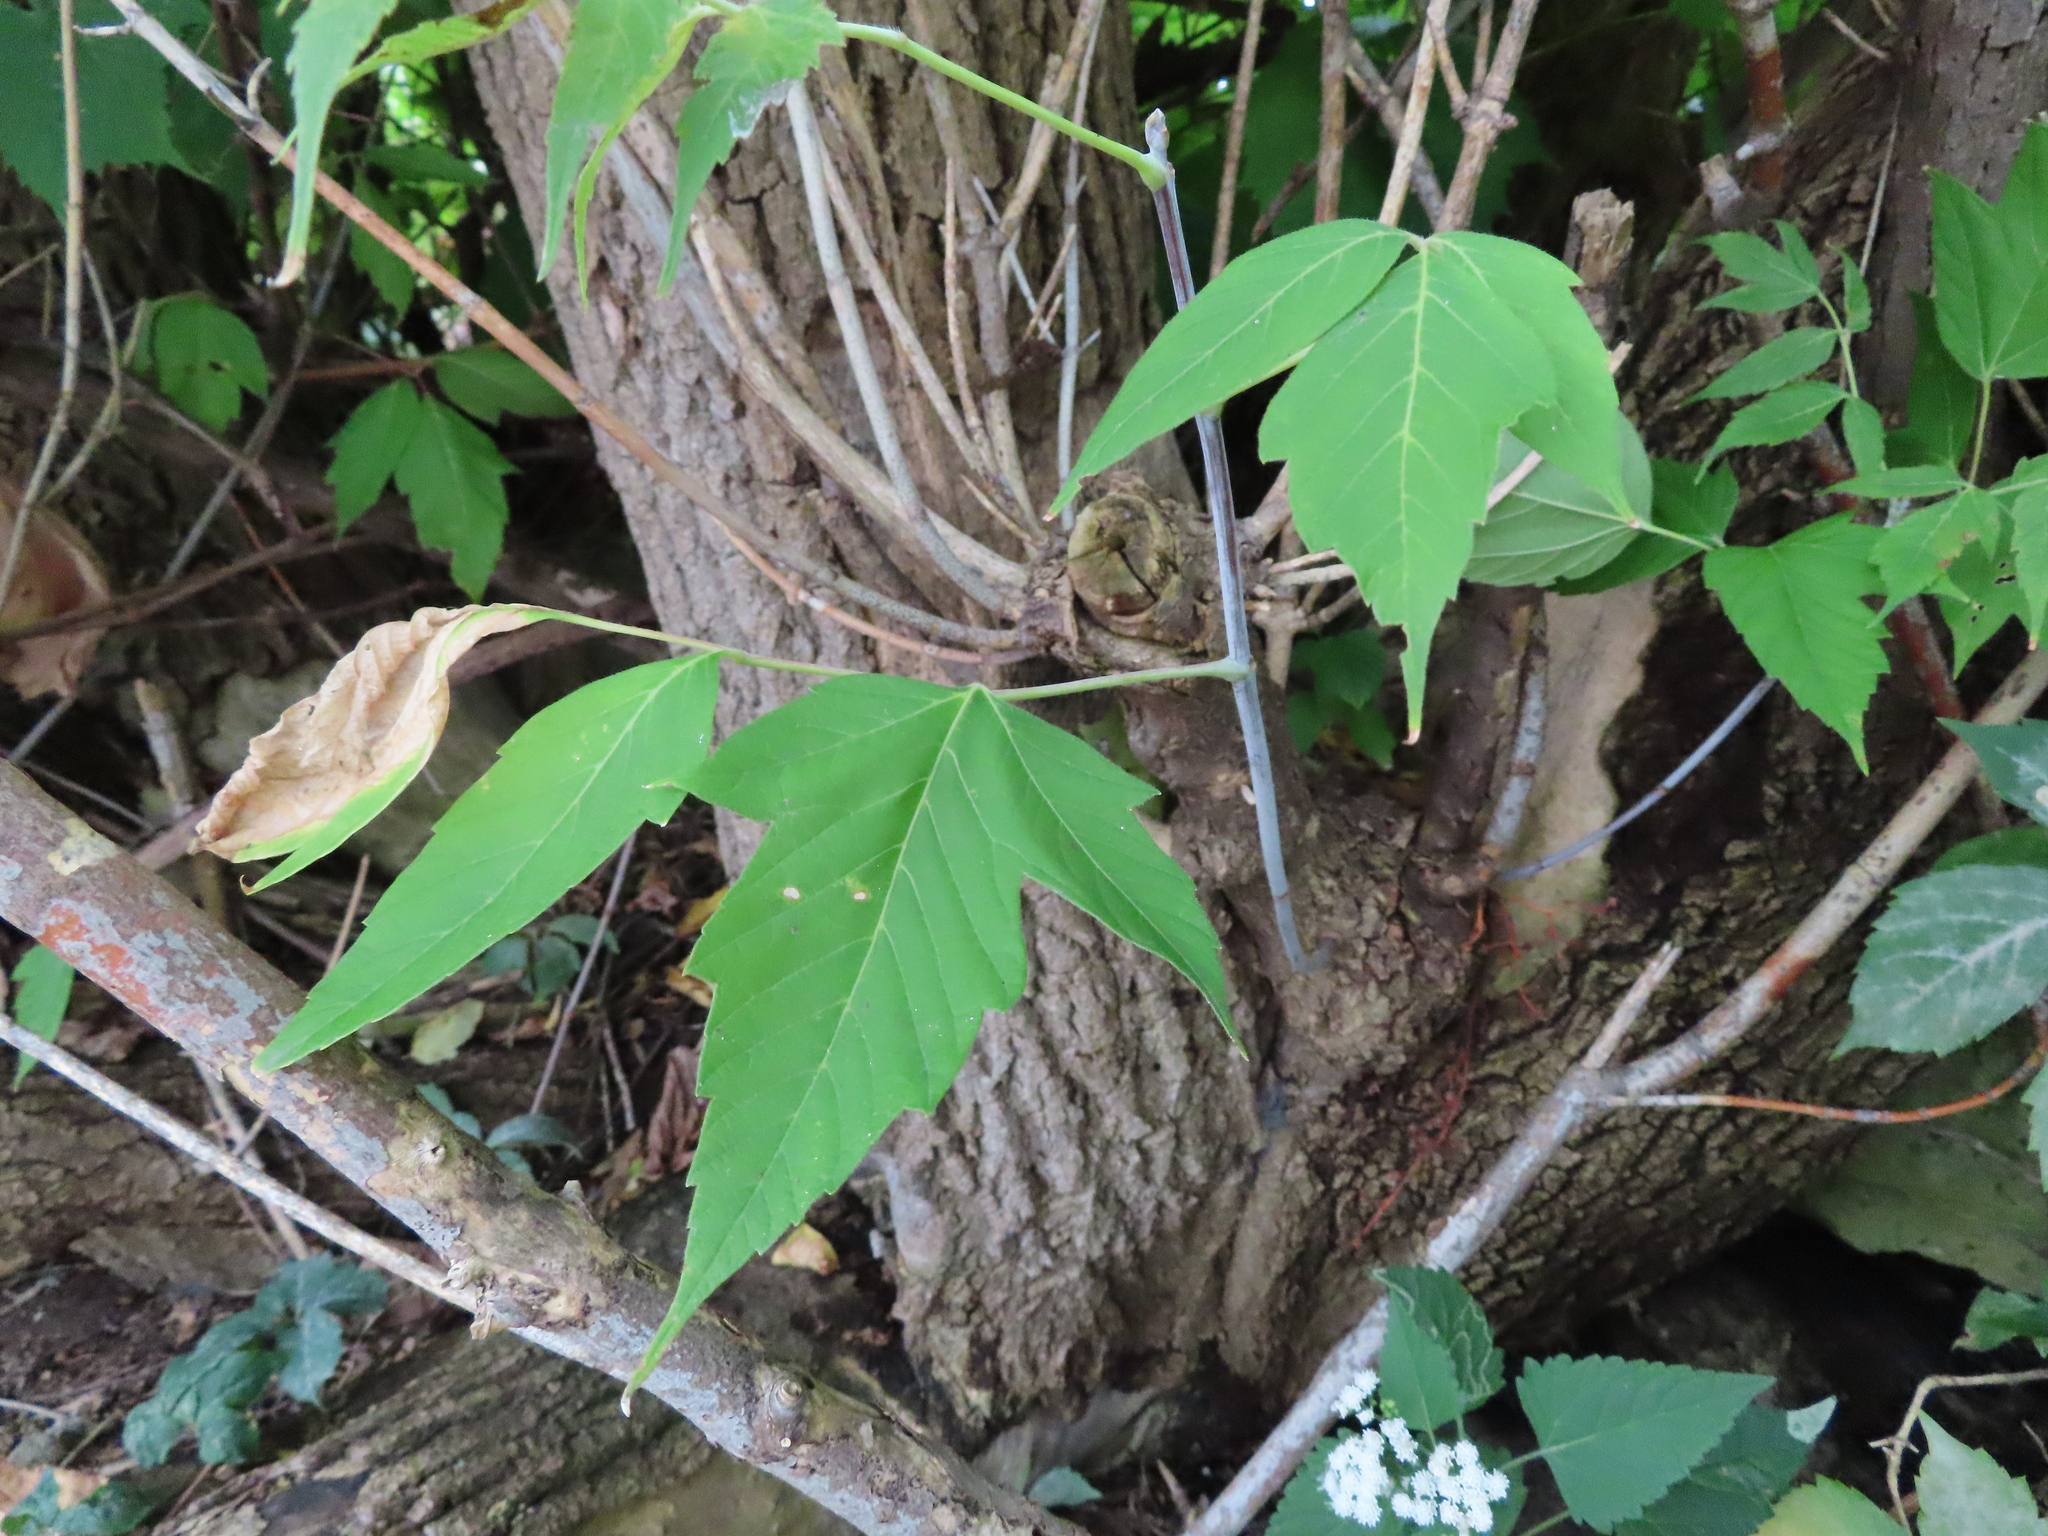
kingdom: Plantae
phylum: Tracheophyta
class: Magnoliopsida
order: Sapindales
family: Sapindaceae
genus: Acer
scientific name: Acer negundo
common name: Ashleaf maple
